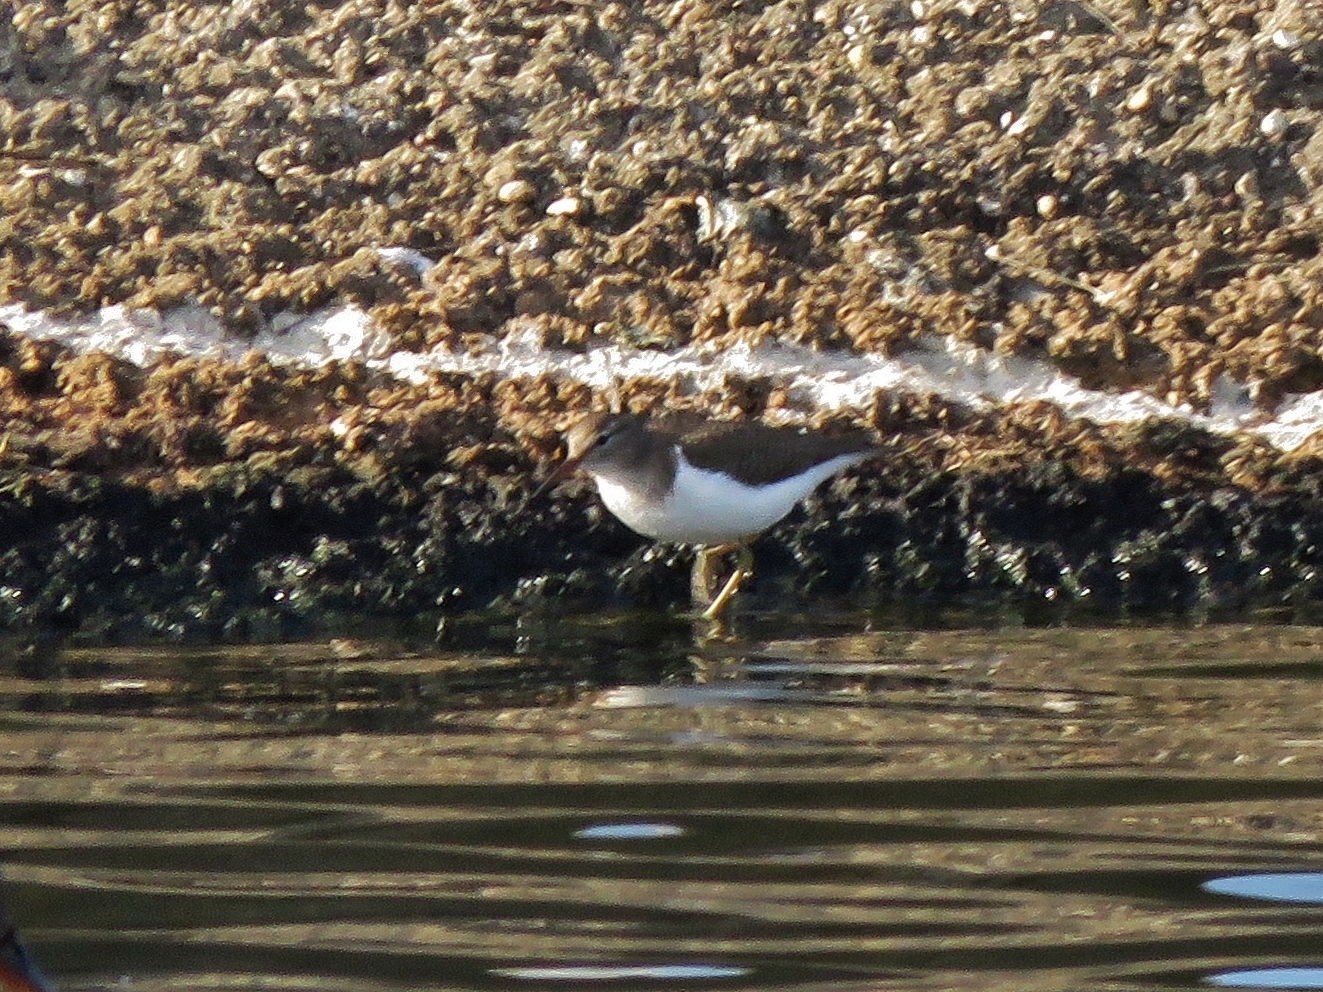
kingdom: Animalia
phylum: Chordata
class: Aves
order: Charadriiformes
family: Scolopacidae
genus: Actitis
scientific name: Actitis macularius
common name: Spotted sandpiper
